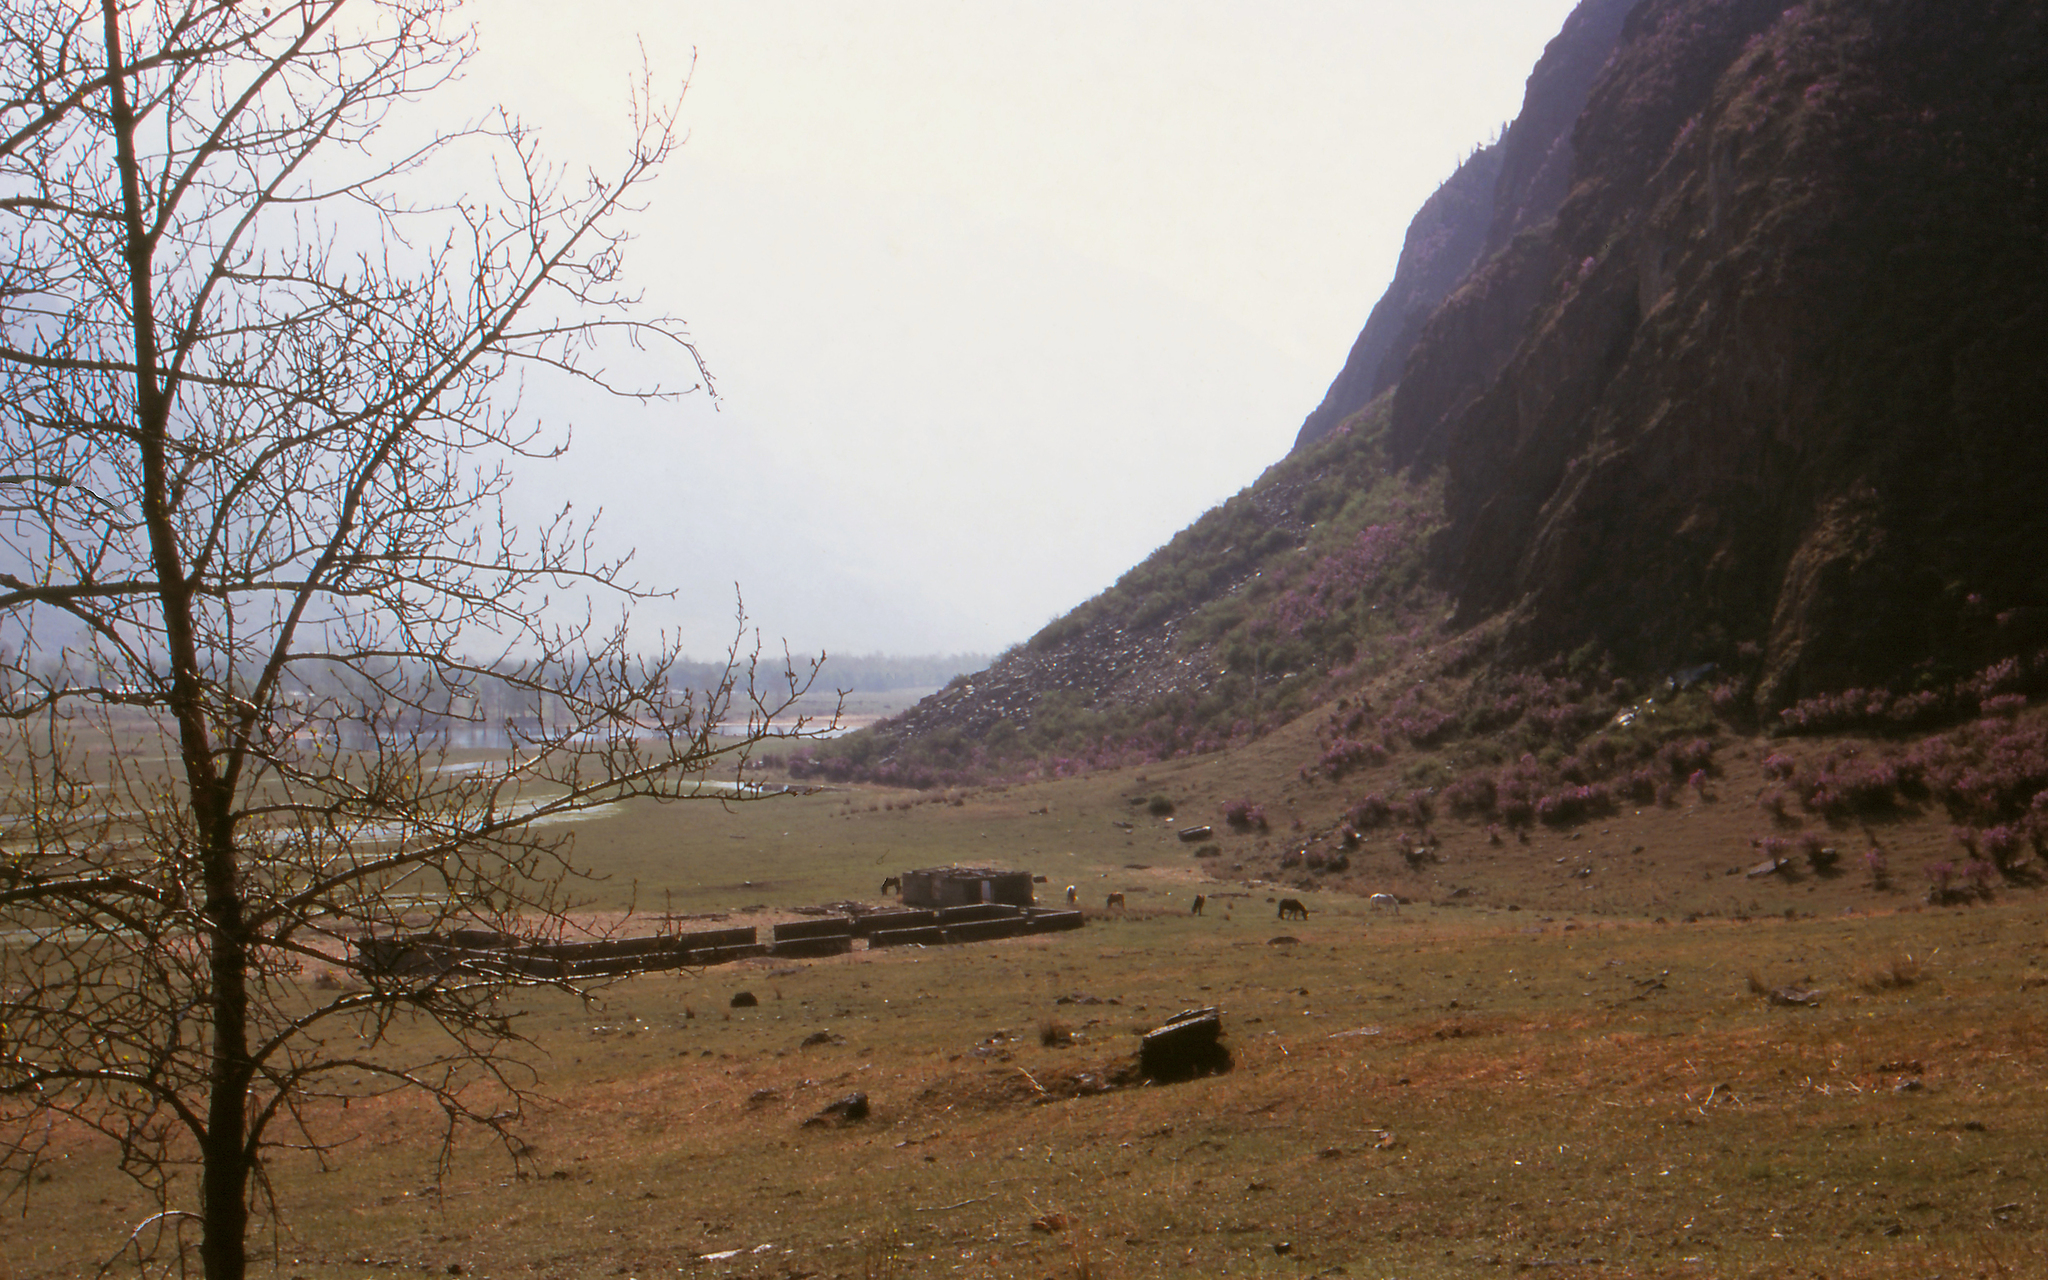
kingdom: Plantae
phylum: Tracheophyta
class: Magnoliopsida
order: Malpighiales
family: Salicaceae
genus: Populus
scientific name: Populus laurifolia
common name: Laurel-leaf poplar
